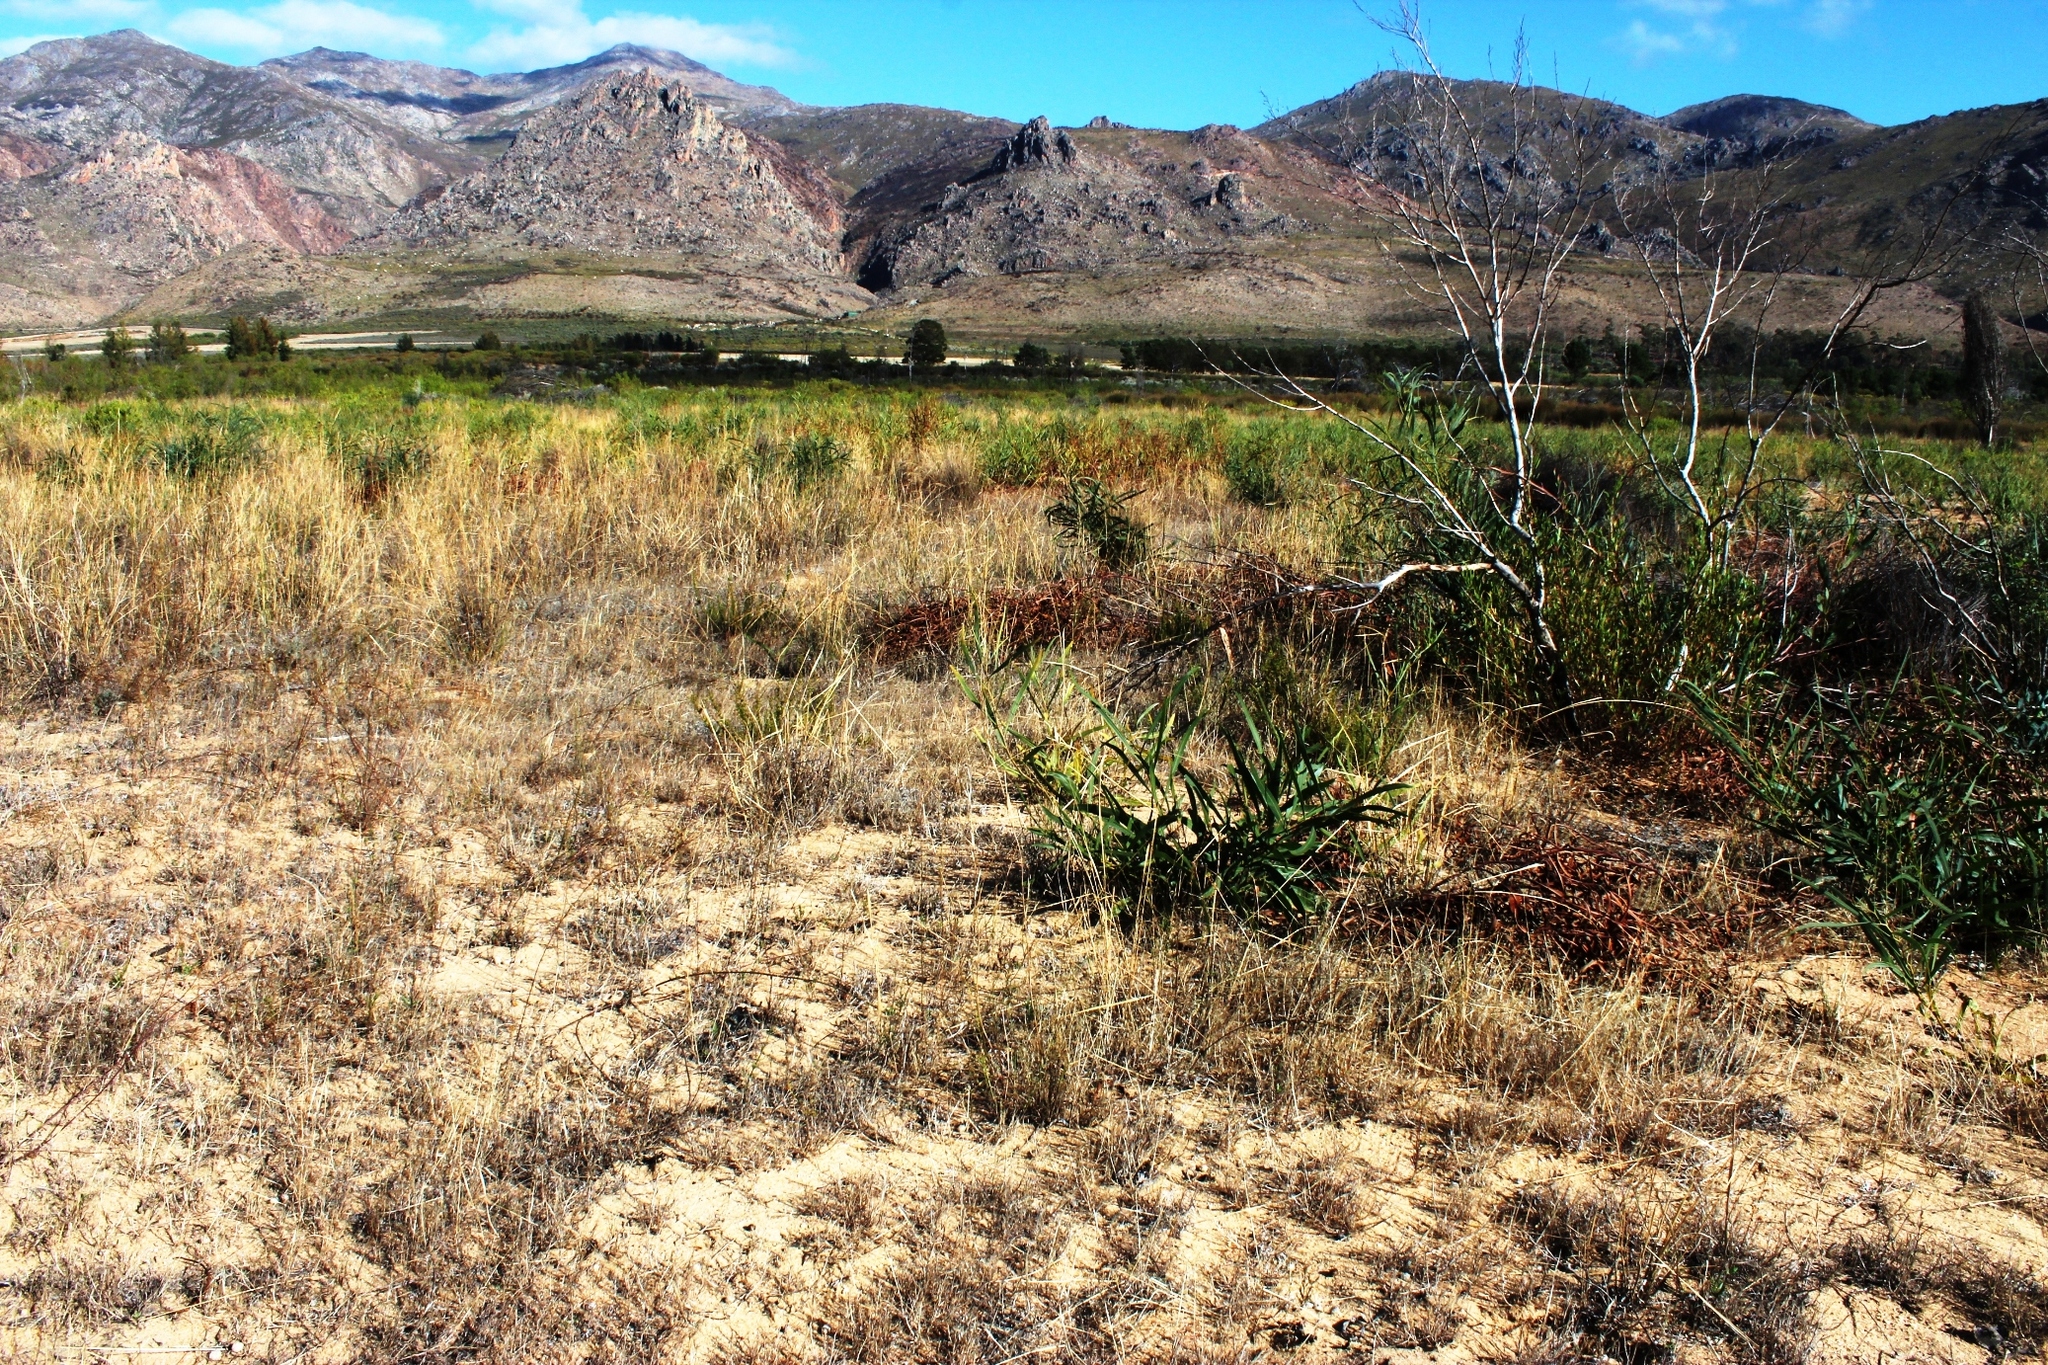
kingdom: Plantae
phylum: Tracheophyta
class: Magnoliopsida
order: Fabales
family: Fabaceae
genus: Acacia
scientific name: Acacia saligna
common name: Orange wattle
